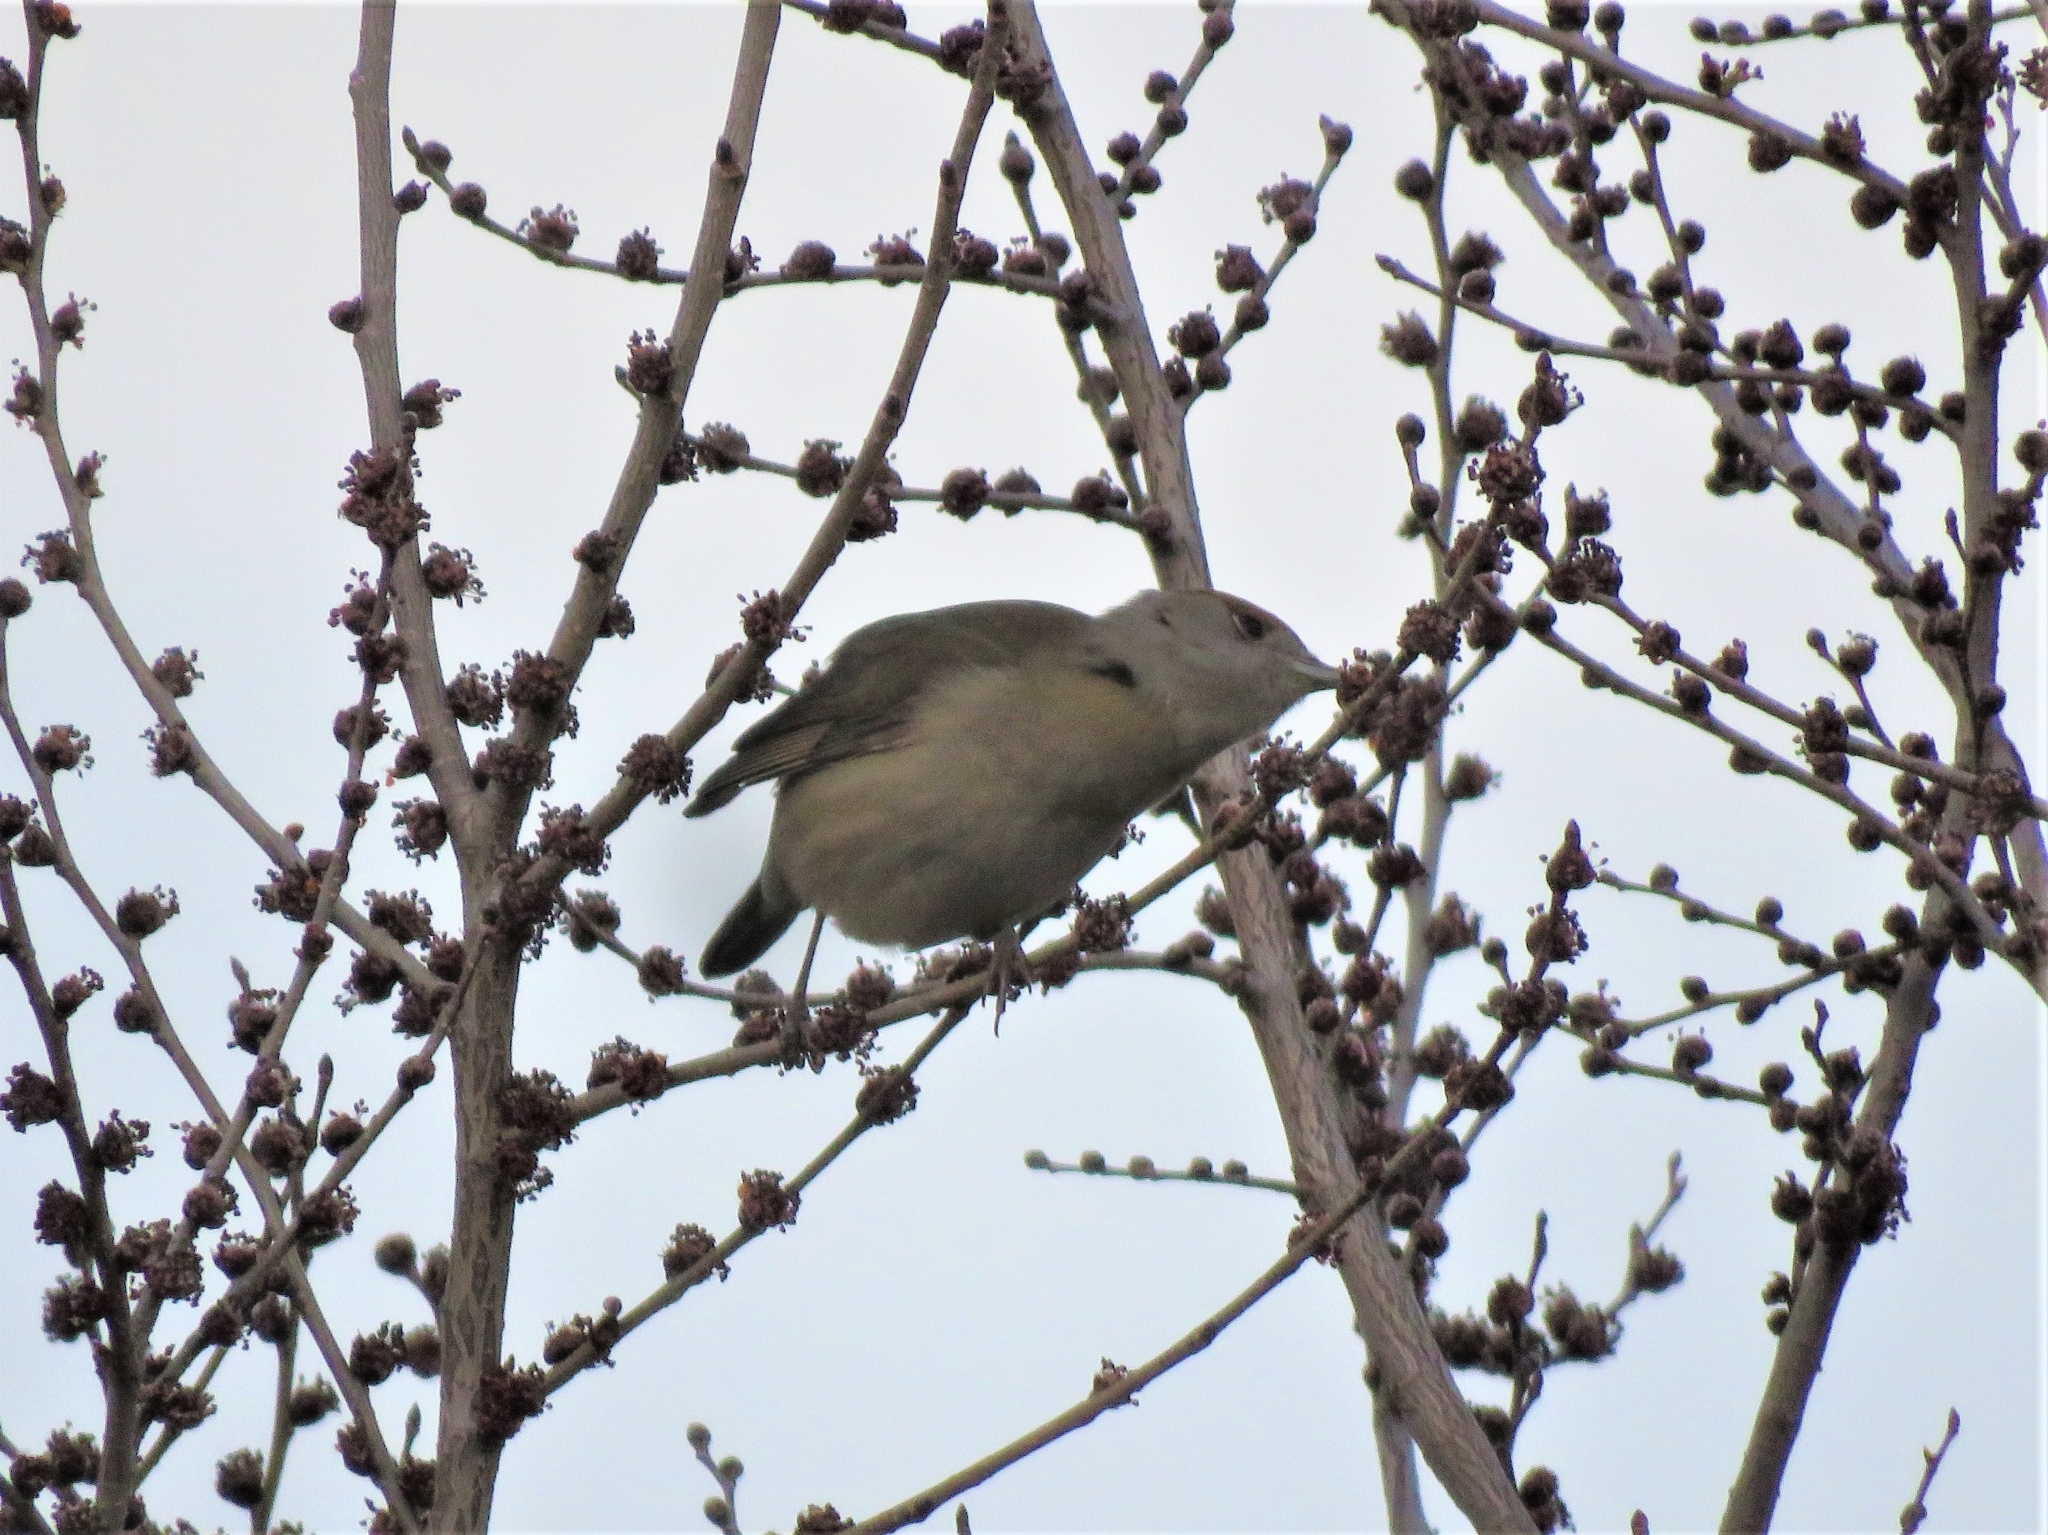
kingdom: Animalia
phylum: Chordata
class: Aves
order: Passeriformes
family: Sylviidae
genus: Sylvia
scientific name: Sylvia atricapilla
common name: Eurasian blackcap
